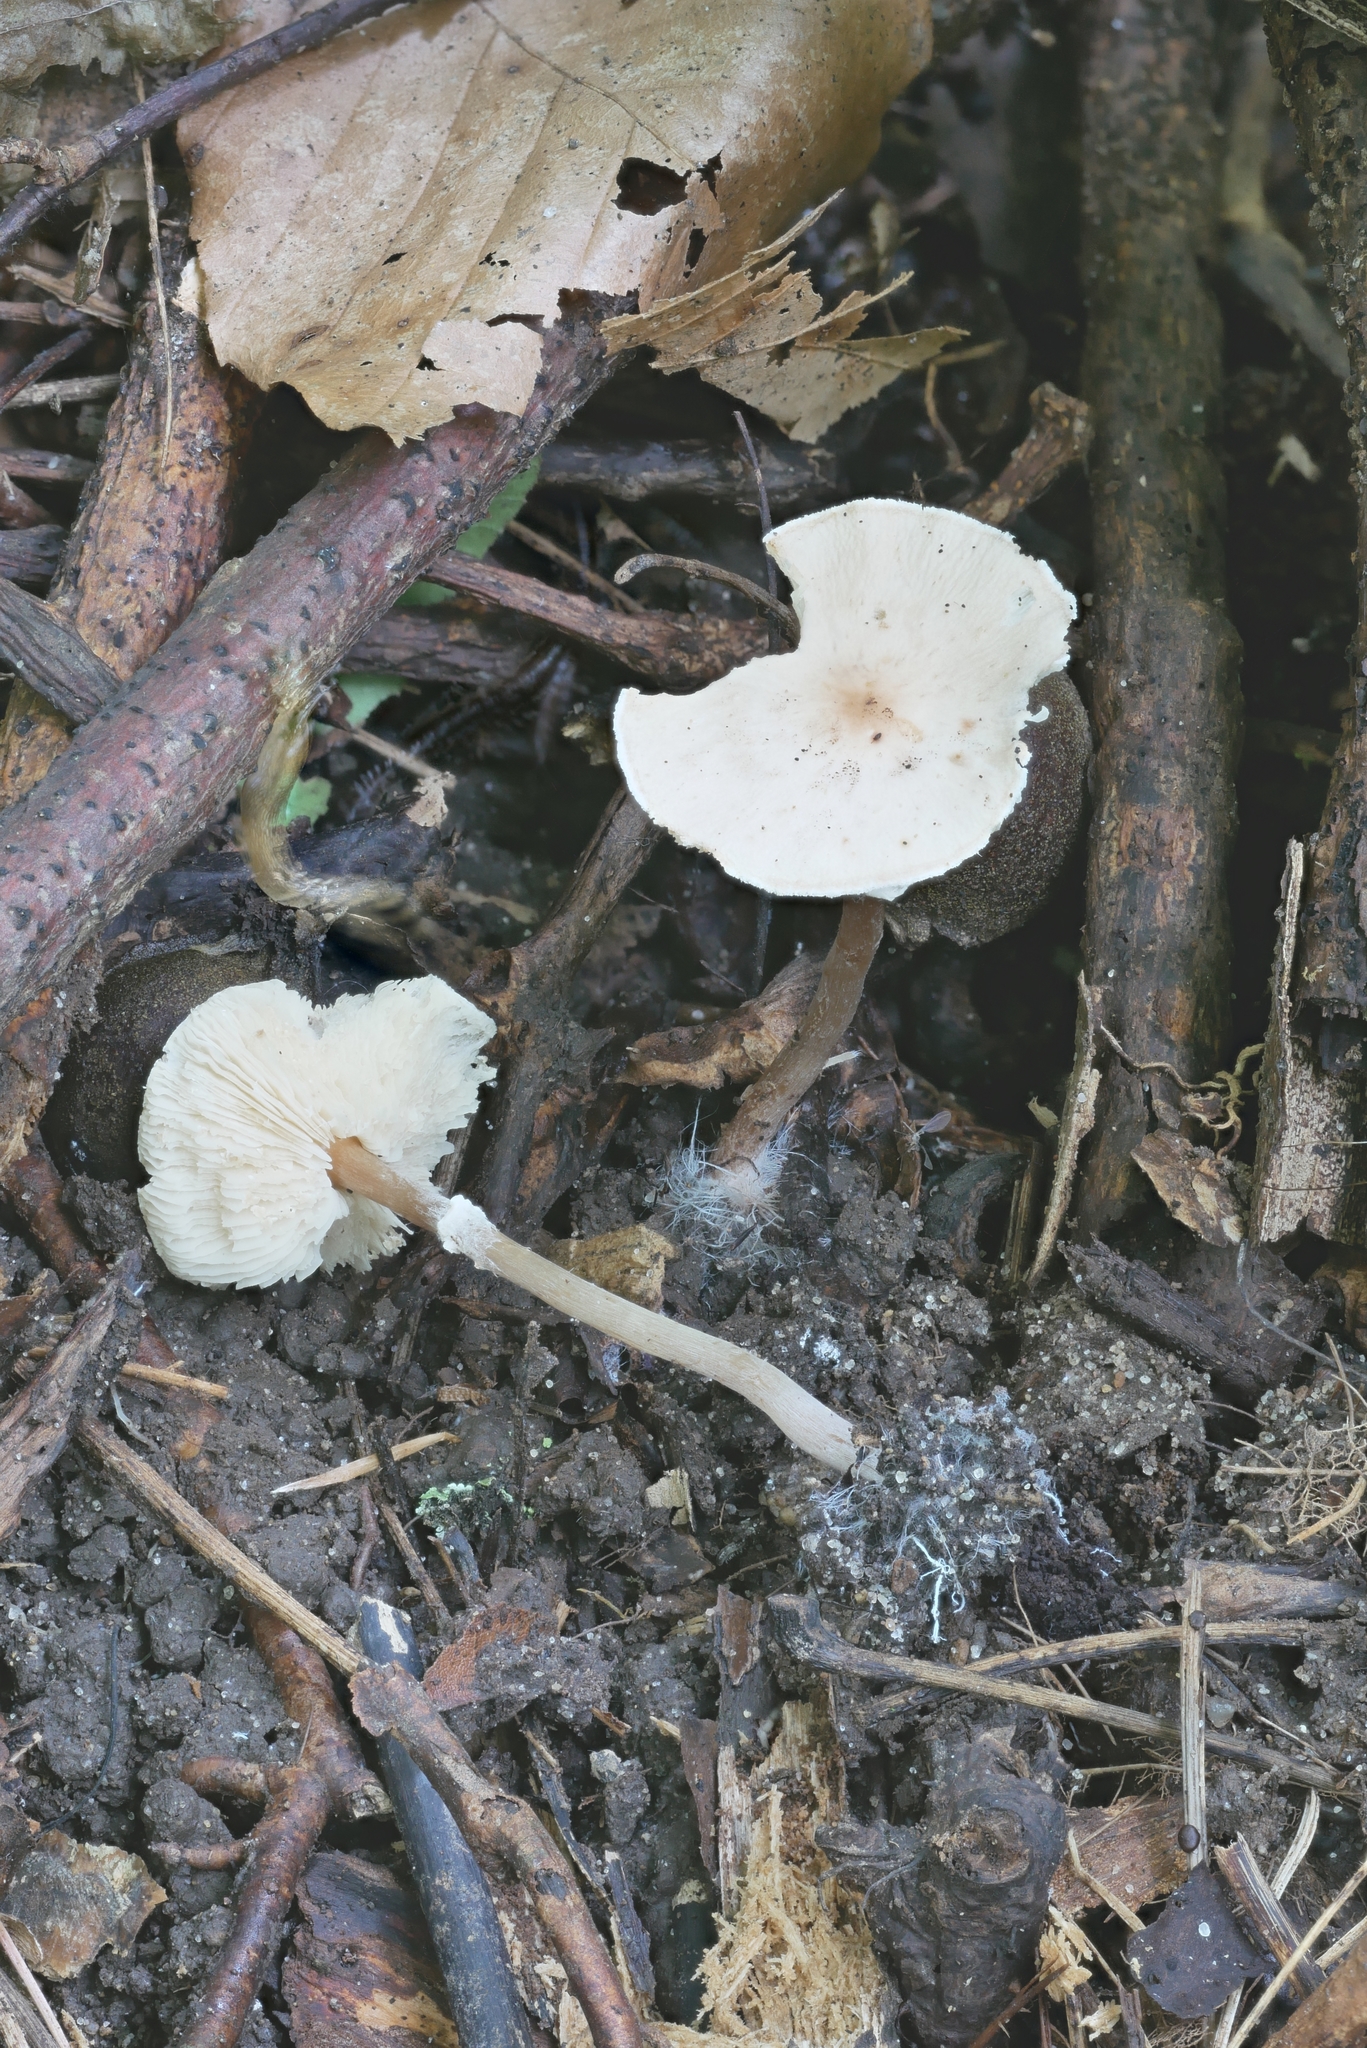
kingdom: Fungi
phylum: Basidiomycota
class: Agaricomycetes
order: Agaricales
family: Agaricaceae
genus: Lepiota
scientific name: Lepiota cristata
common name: Stinking dapperling
